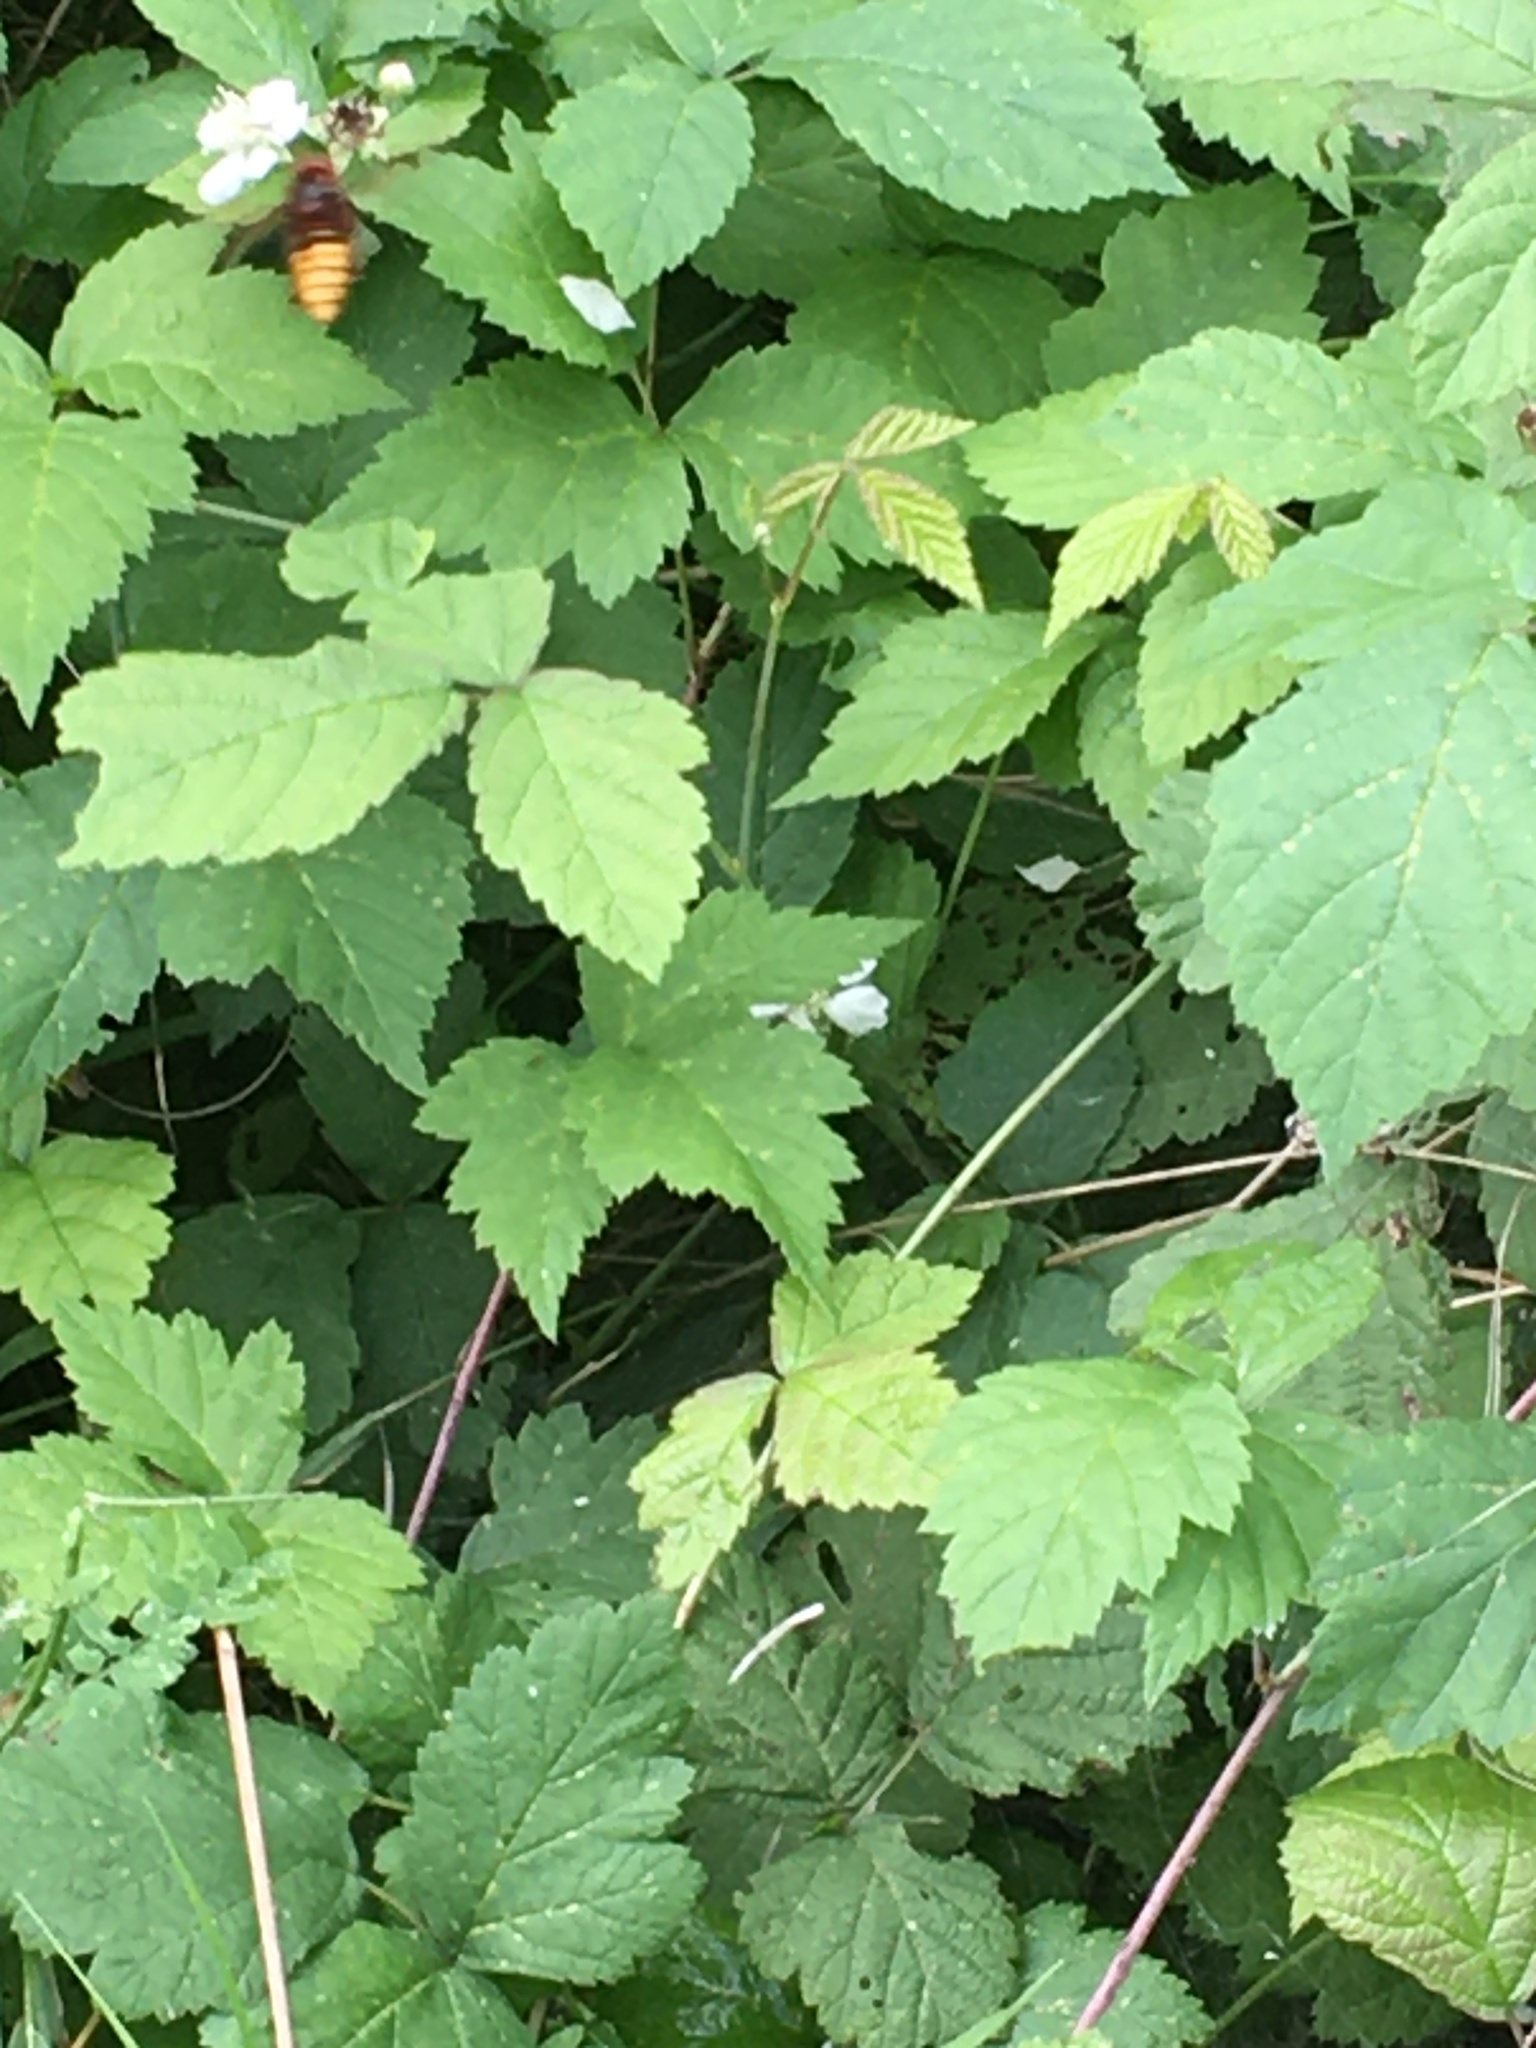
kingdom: Animalia
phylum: Arthropoda
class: Insecta
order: Hymenoptera
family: Vespidae
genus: Vespa
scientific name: Vespa crabro
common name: Hornet
